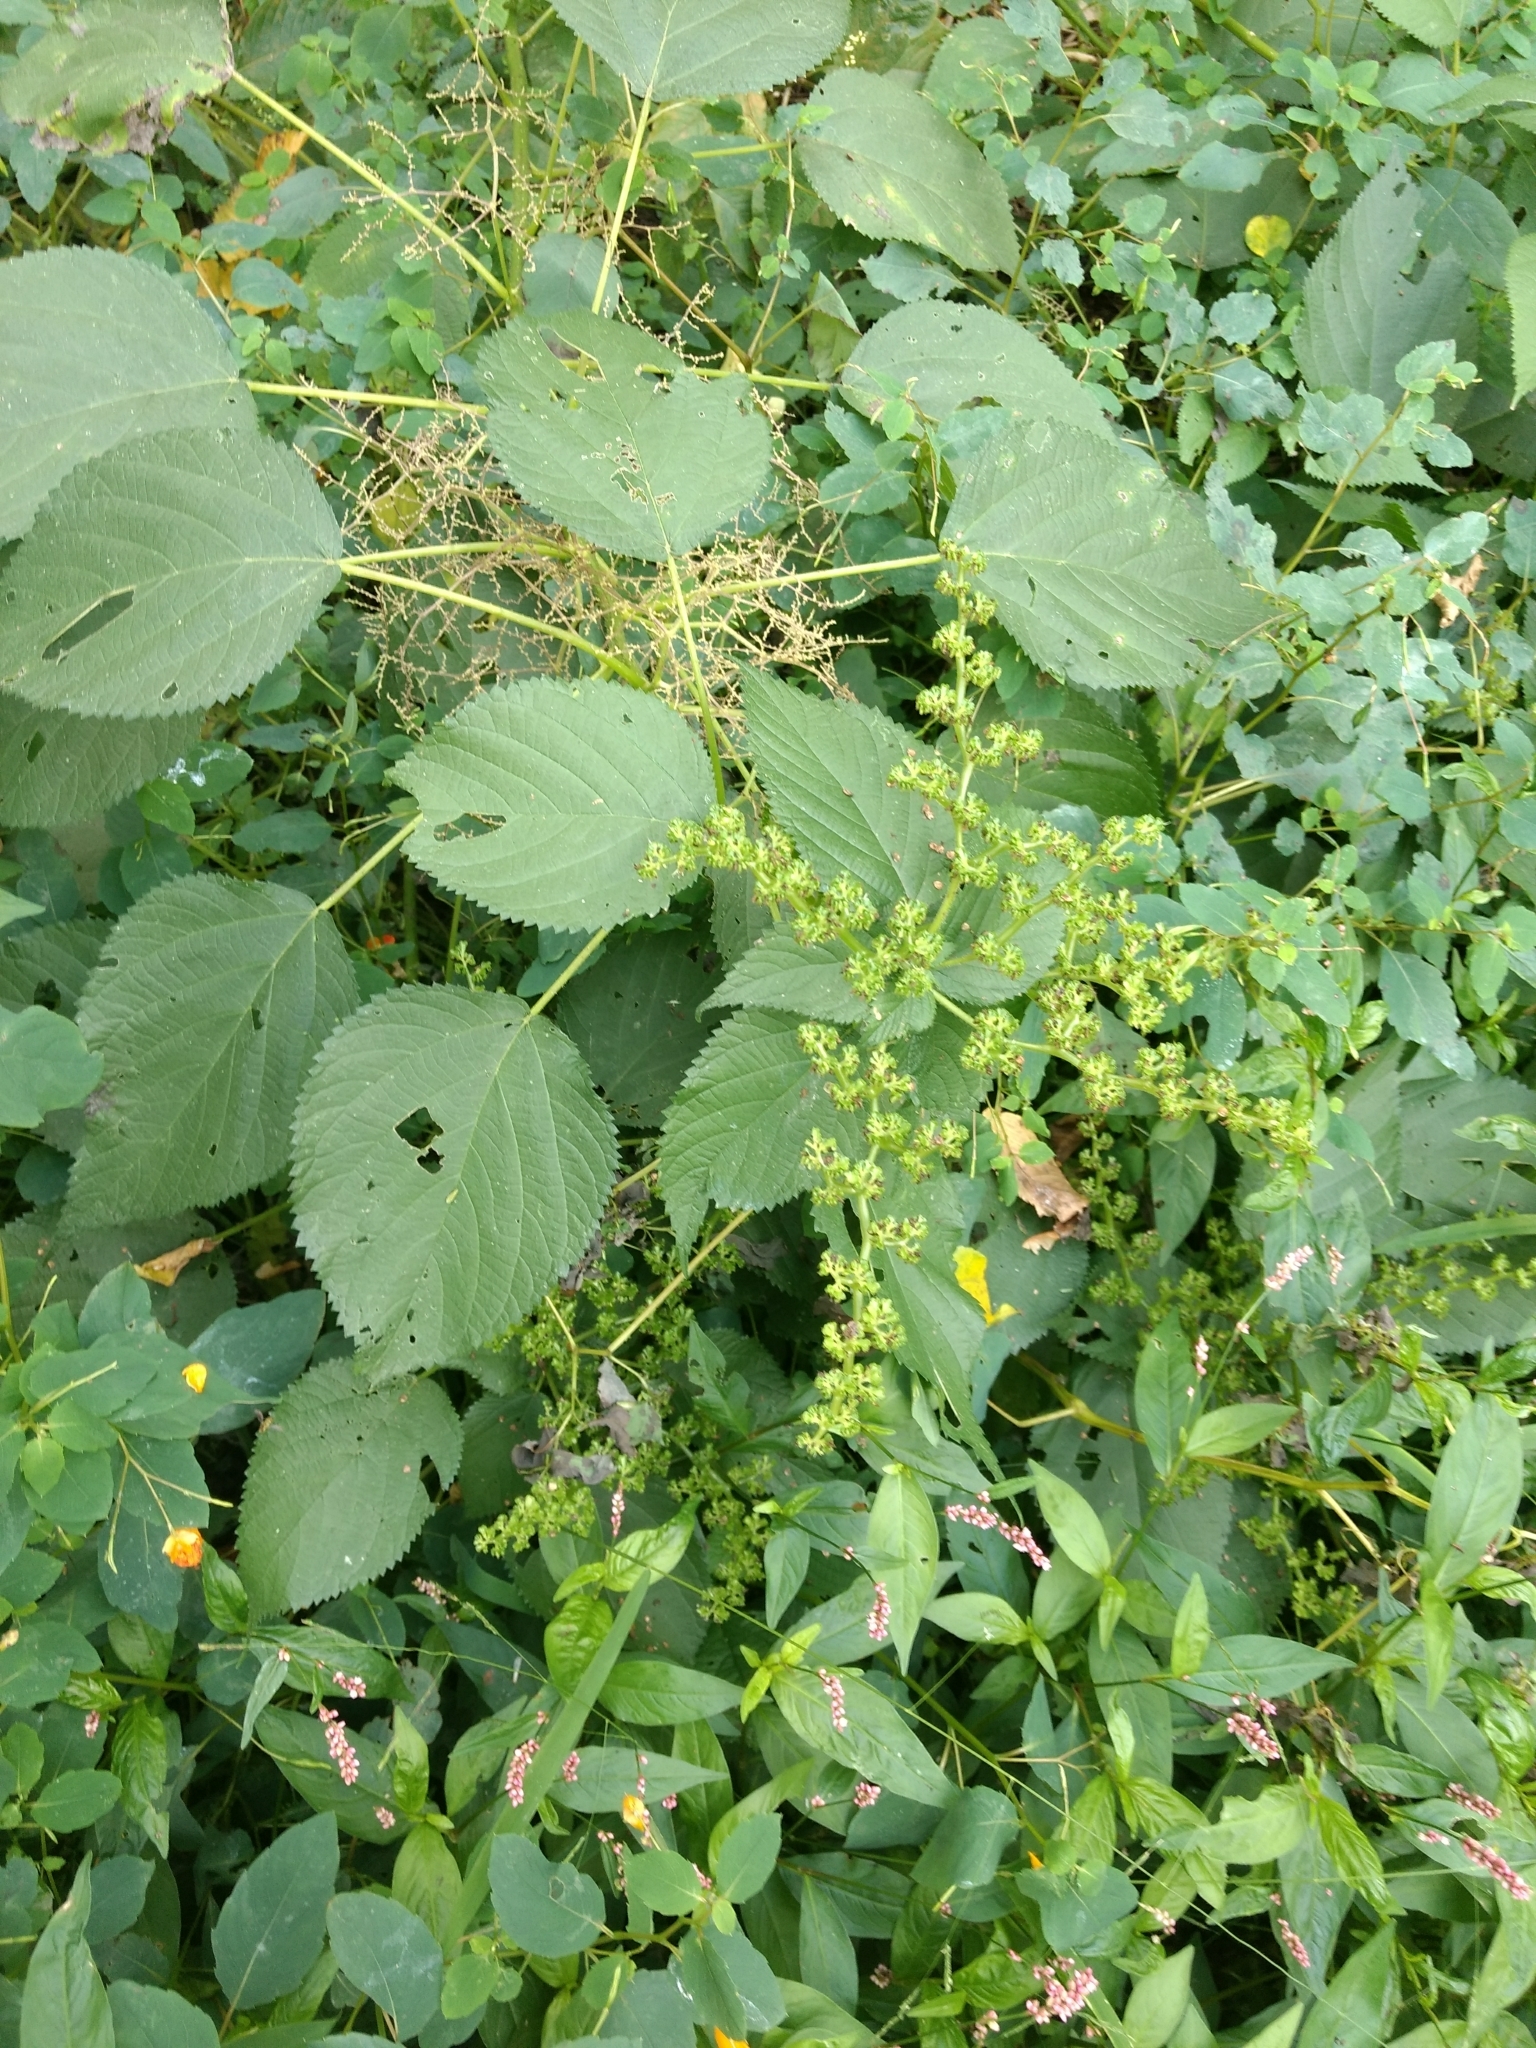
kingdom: Plantae
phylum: Tracheophyta
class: Magnoliopsida
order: Rosales
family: Urticaceae
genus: Laportea
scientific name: Laportea canadensis
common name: Canada nettle
